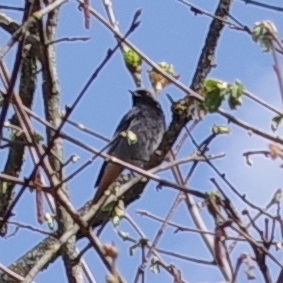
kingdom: Animalia
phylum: Chordata
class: Aves
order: Passeriformes
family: Muscicapidae
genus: Phoenicurus
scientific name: Phoenicurus ochruros
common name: Black redstart
